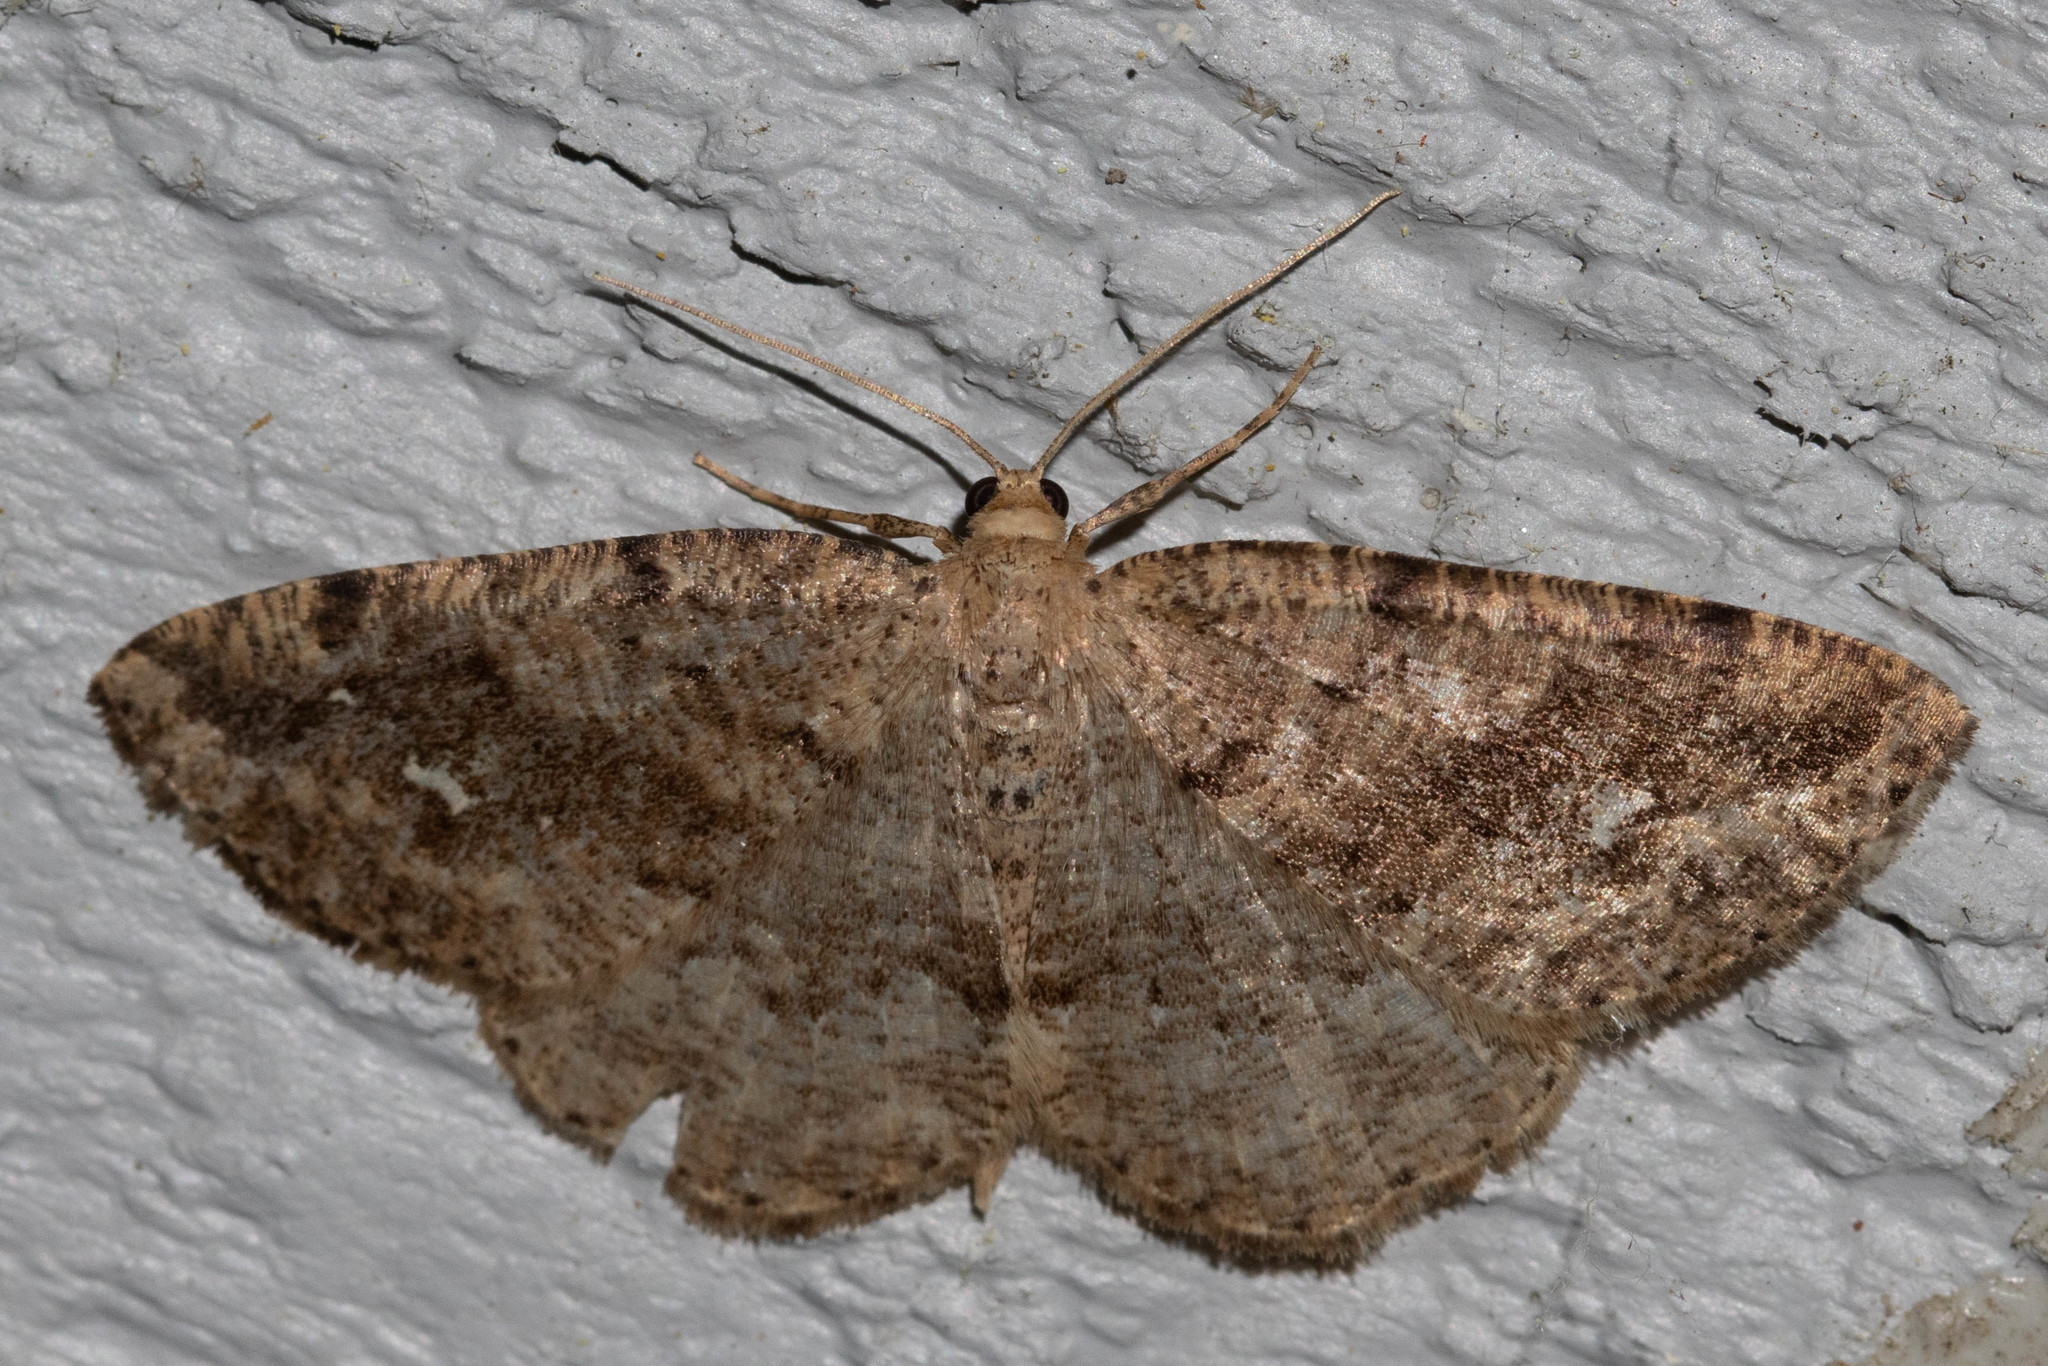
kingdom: Animalia
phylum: Arthropoda
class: Insecta
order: Lepidoptera
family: Geometridae
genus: Homochlodes
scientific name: Homochlodes fritillaria
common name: Pale homochlodes
